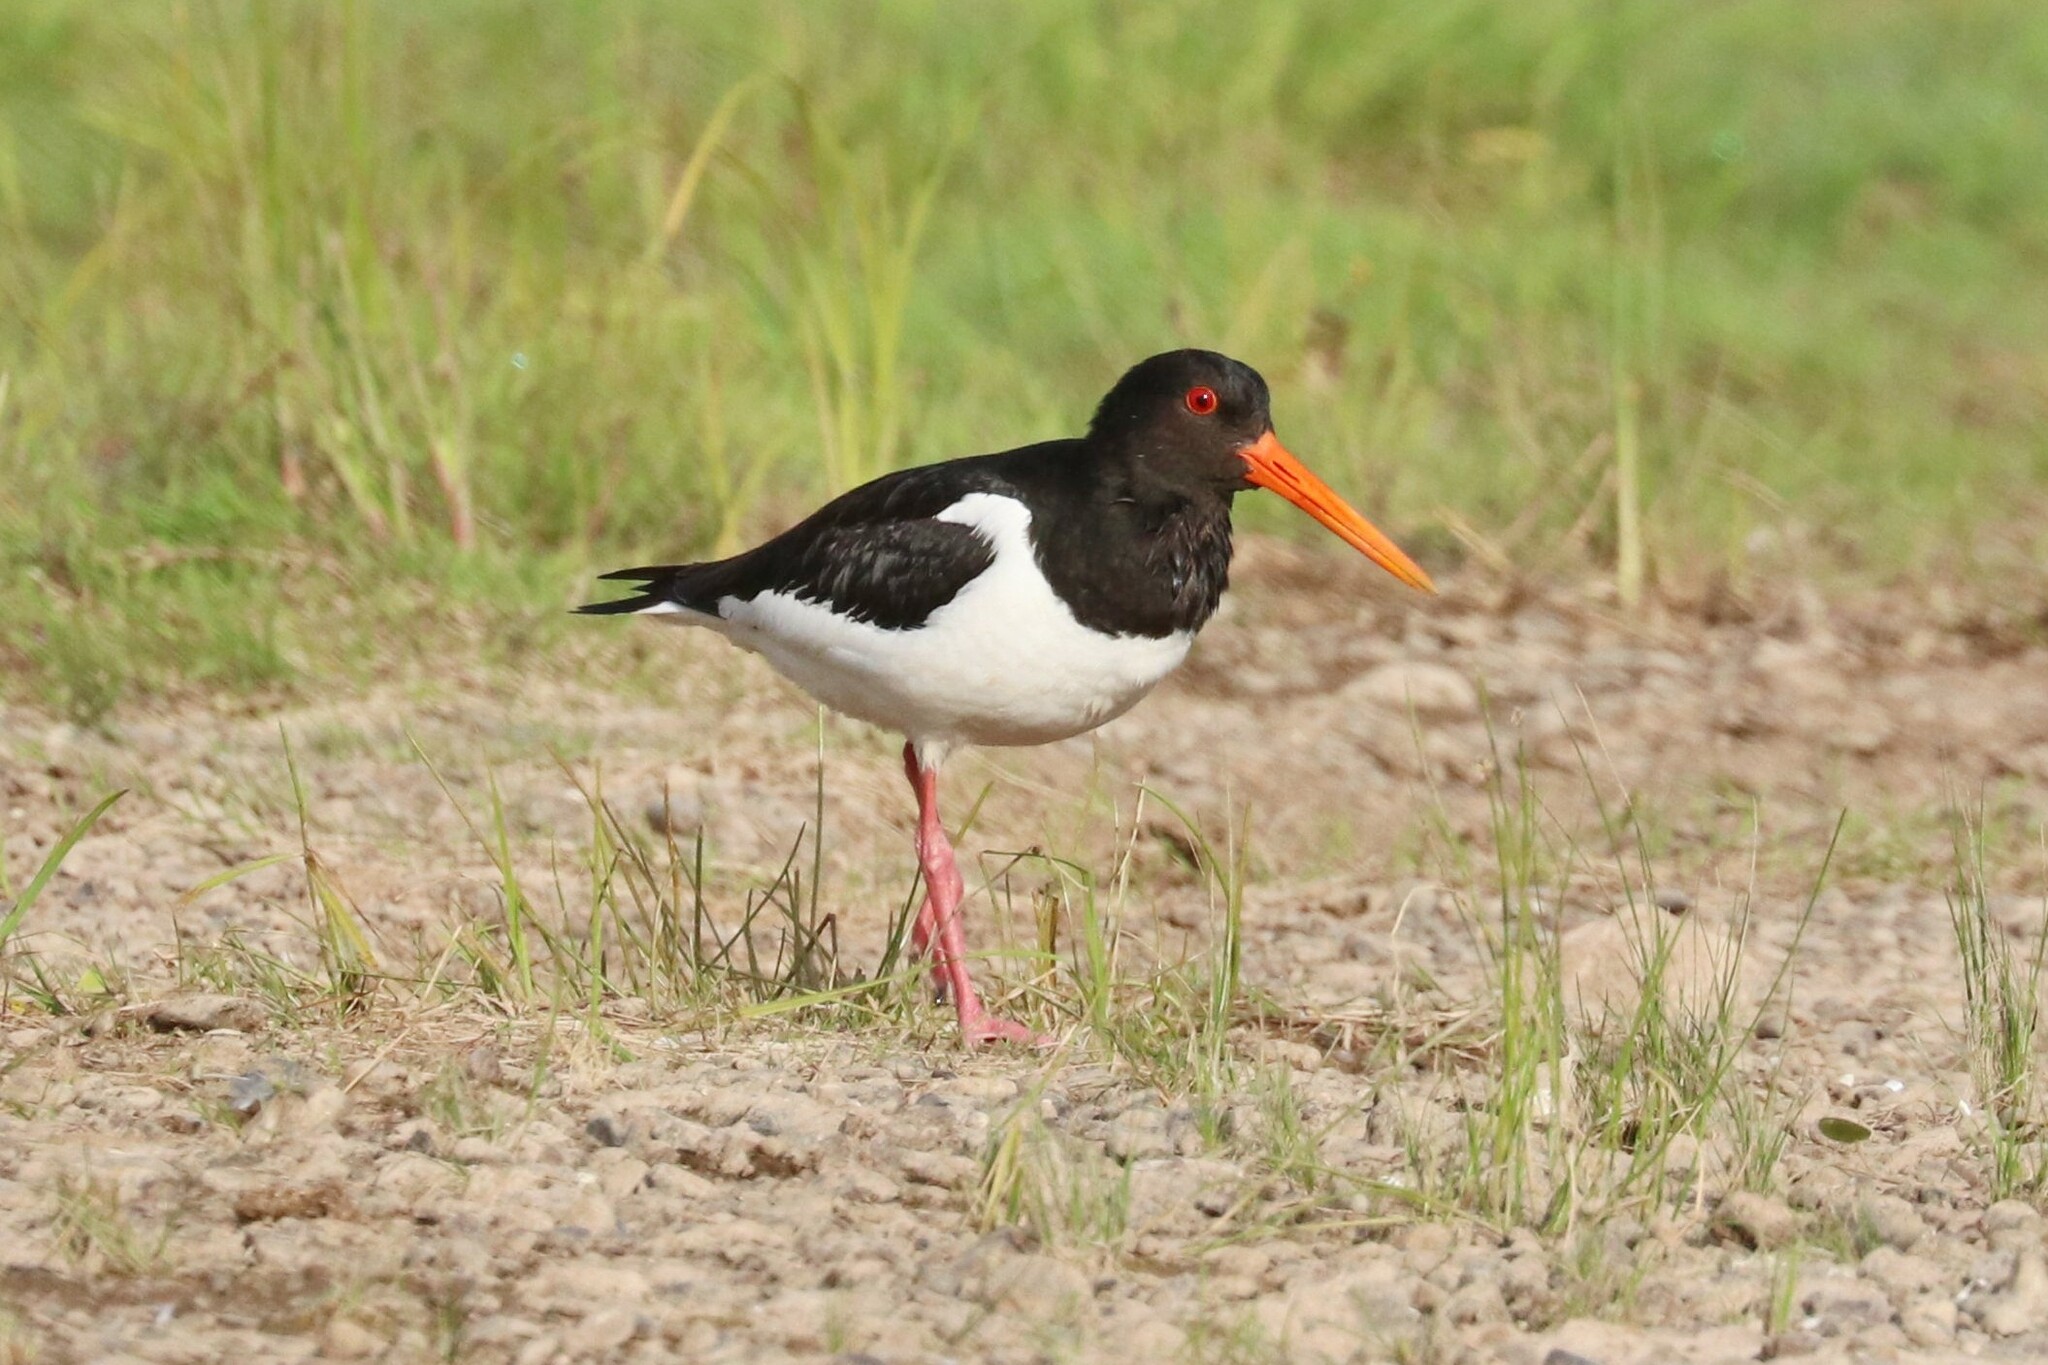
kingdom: Animalia
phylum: Chordata
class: Aves
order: Charadriiformes
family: Haematopodidae
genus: Haematopus
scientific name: Haematopus ostralegus
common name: Eurasian oystercatcher
